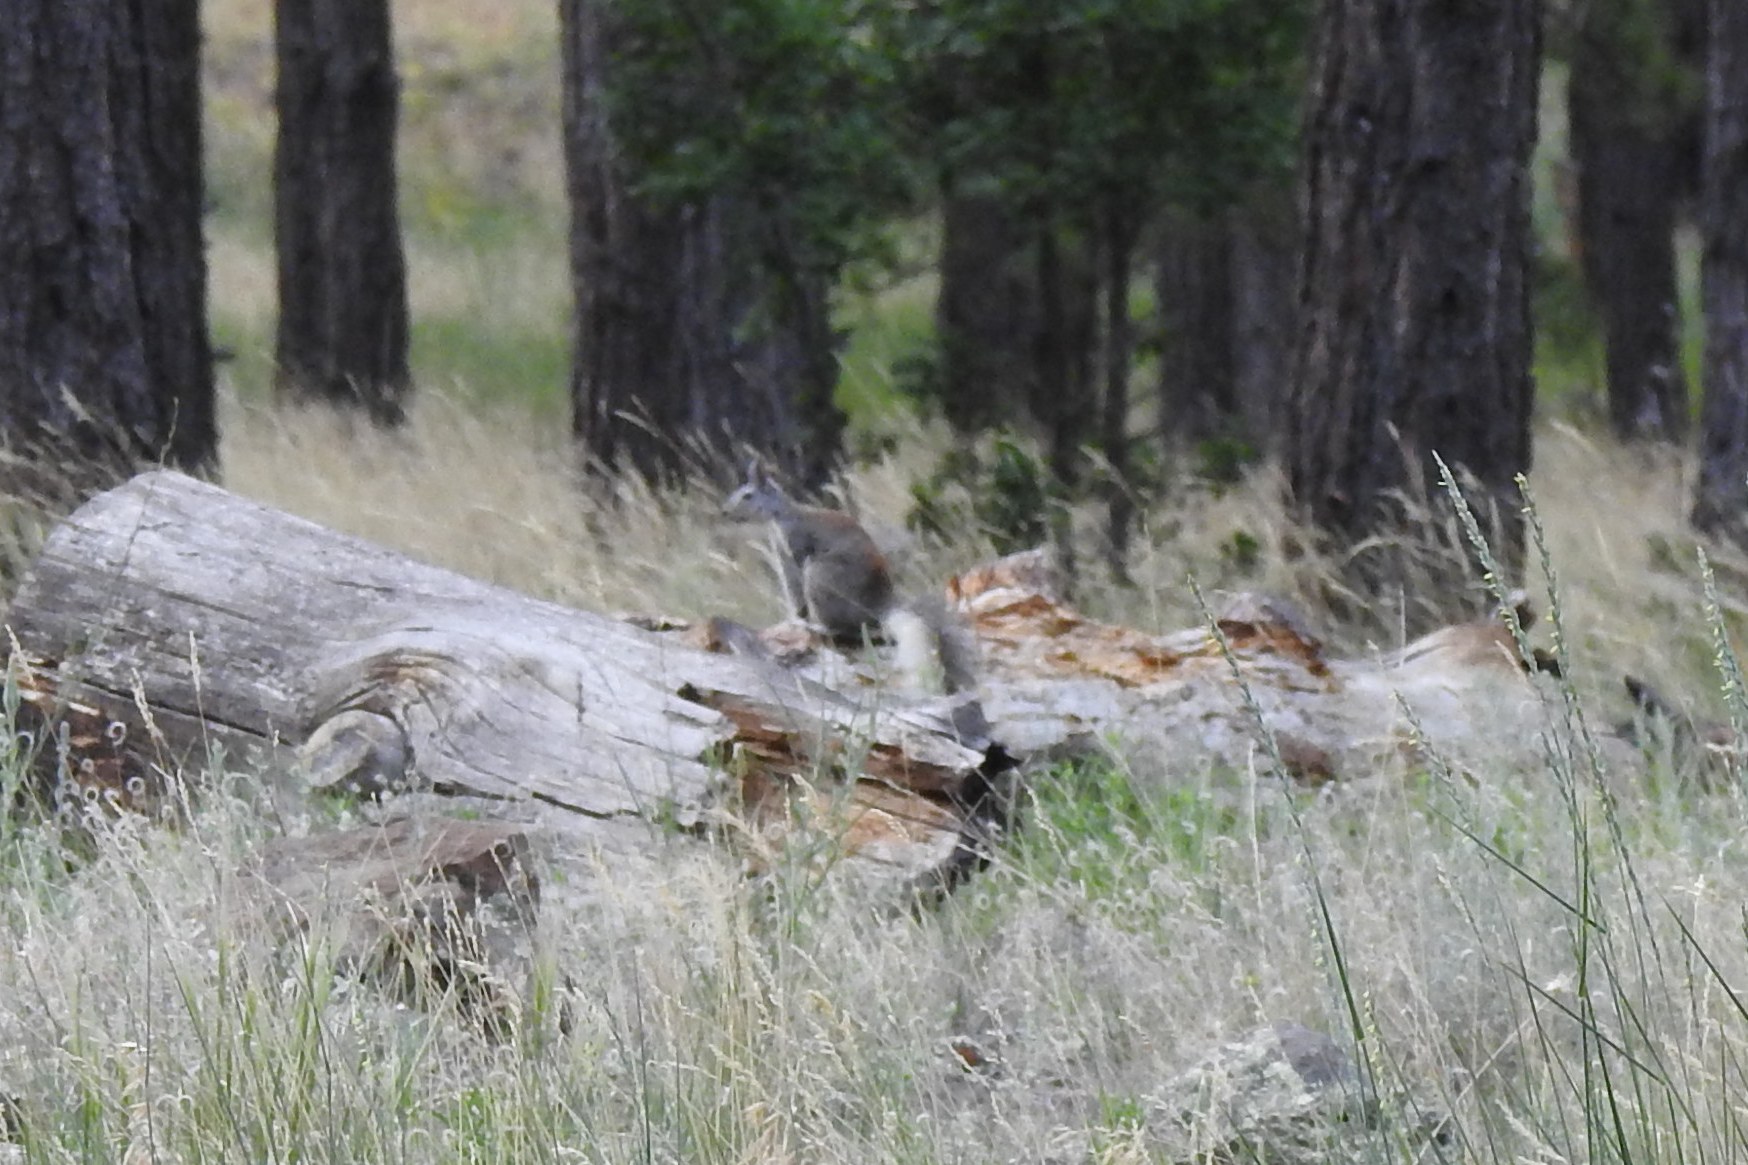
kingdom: Animalia
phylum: Chordata
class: Mammalia
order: Rodentia
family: Sciuridae
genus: Sciurus
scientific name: Sciurus aberti
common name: Abert's squirrel
